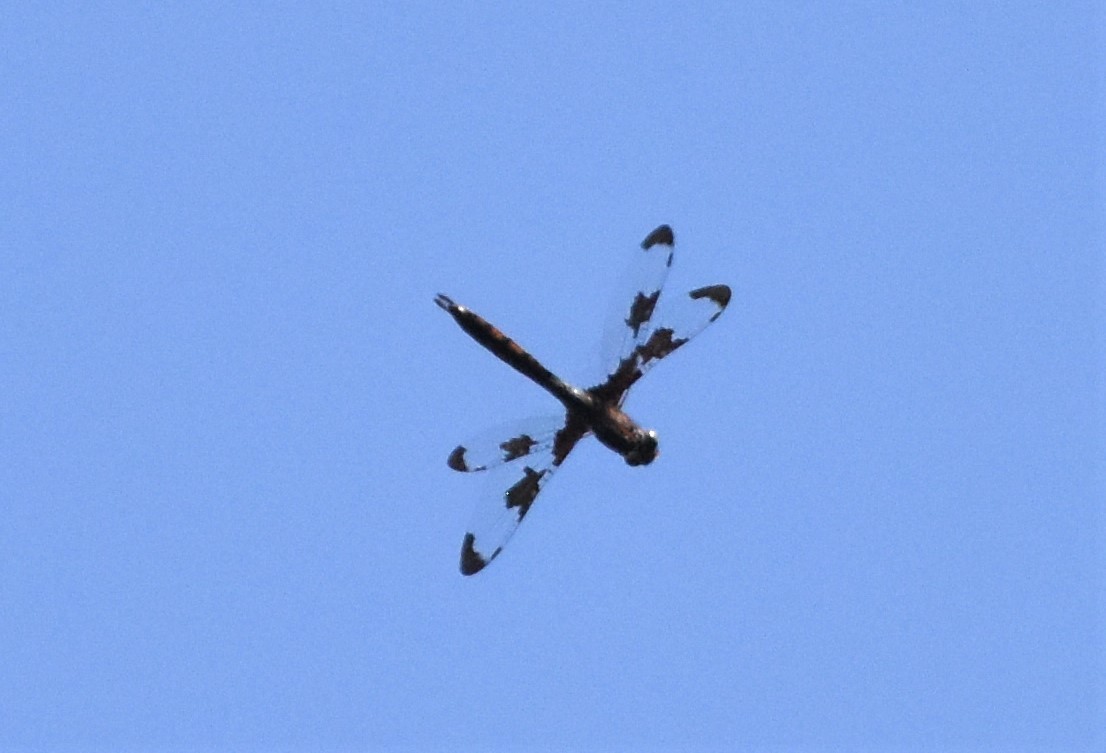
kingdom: Animalia
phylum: Arthropoda
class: Insecta
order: Odonata
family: Corduliidae
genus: Epitheca
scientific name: Epitheca princeps
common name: Prince baskettail
